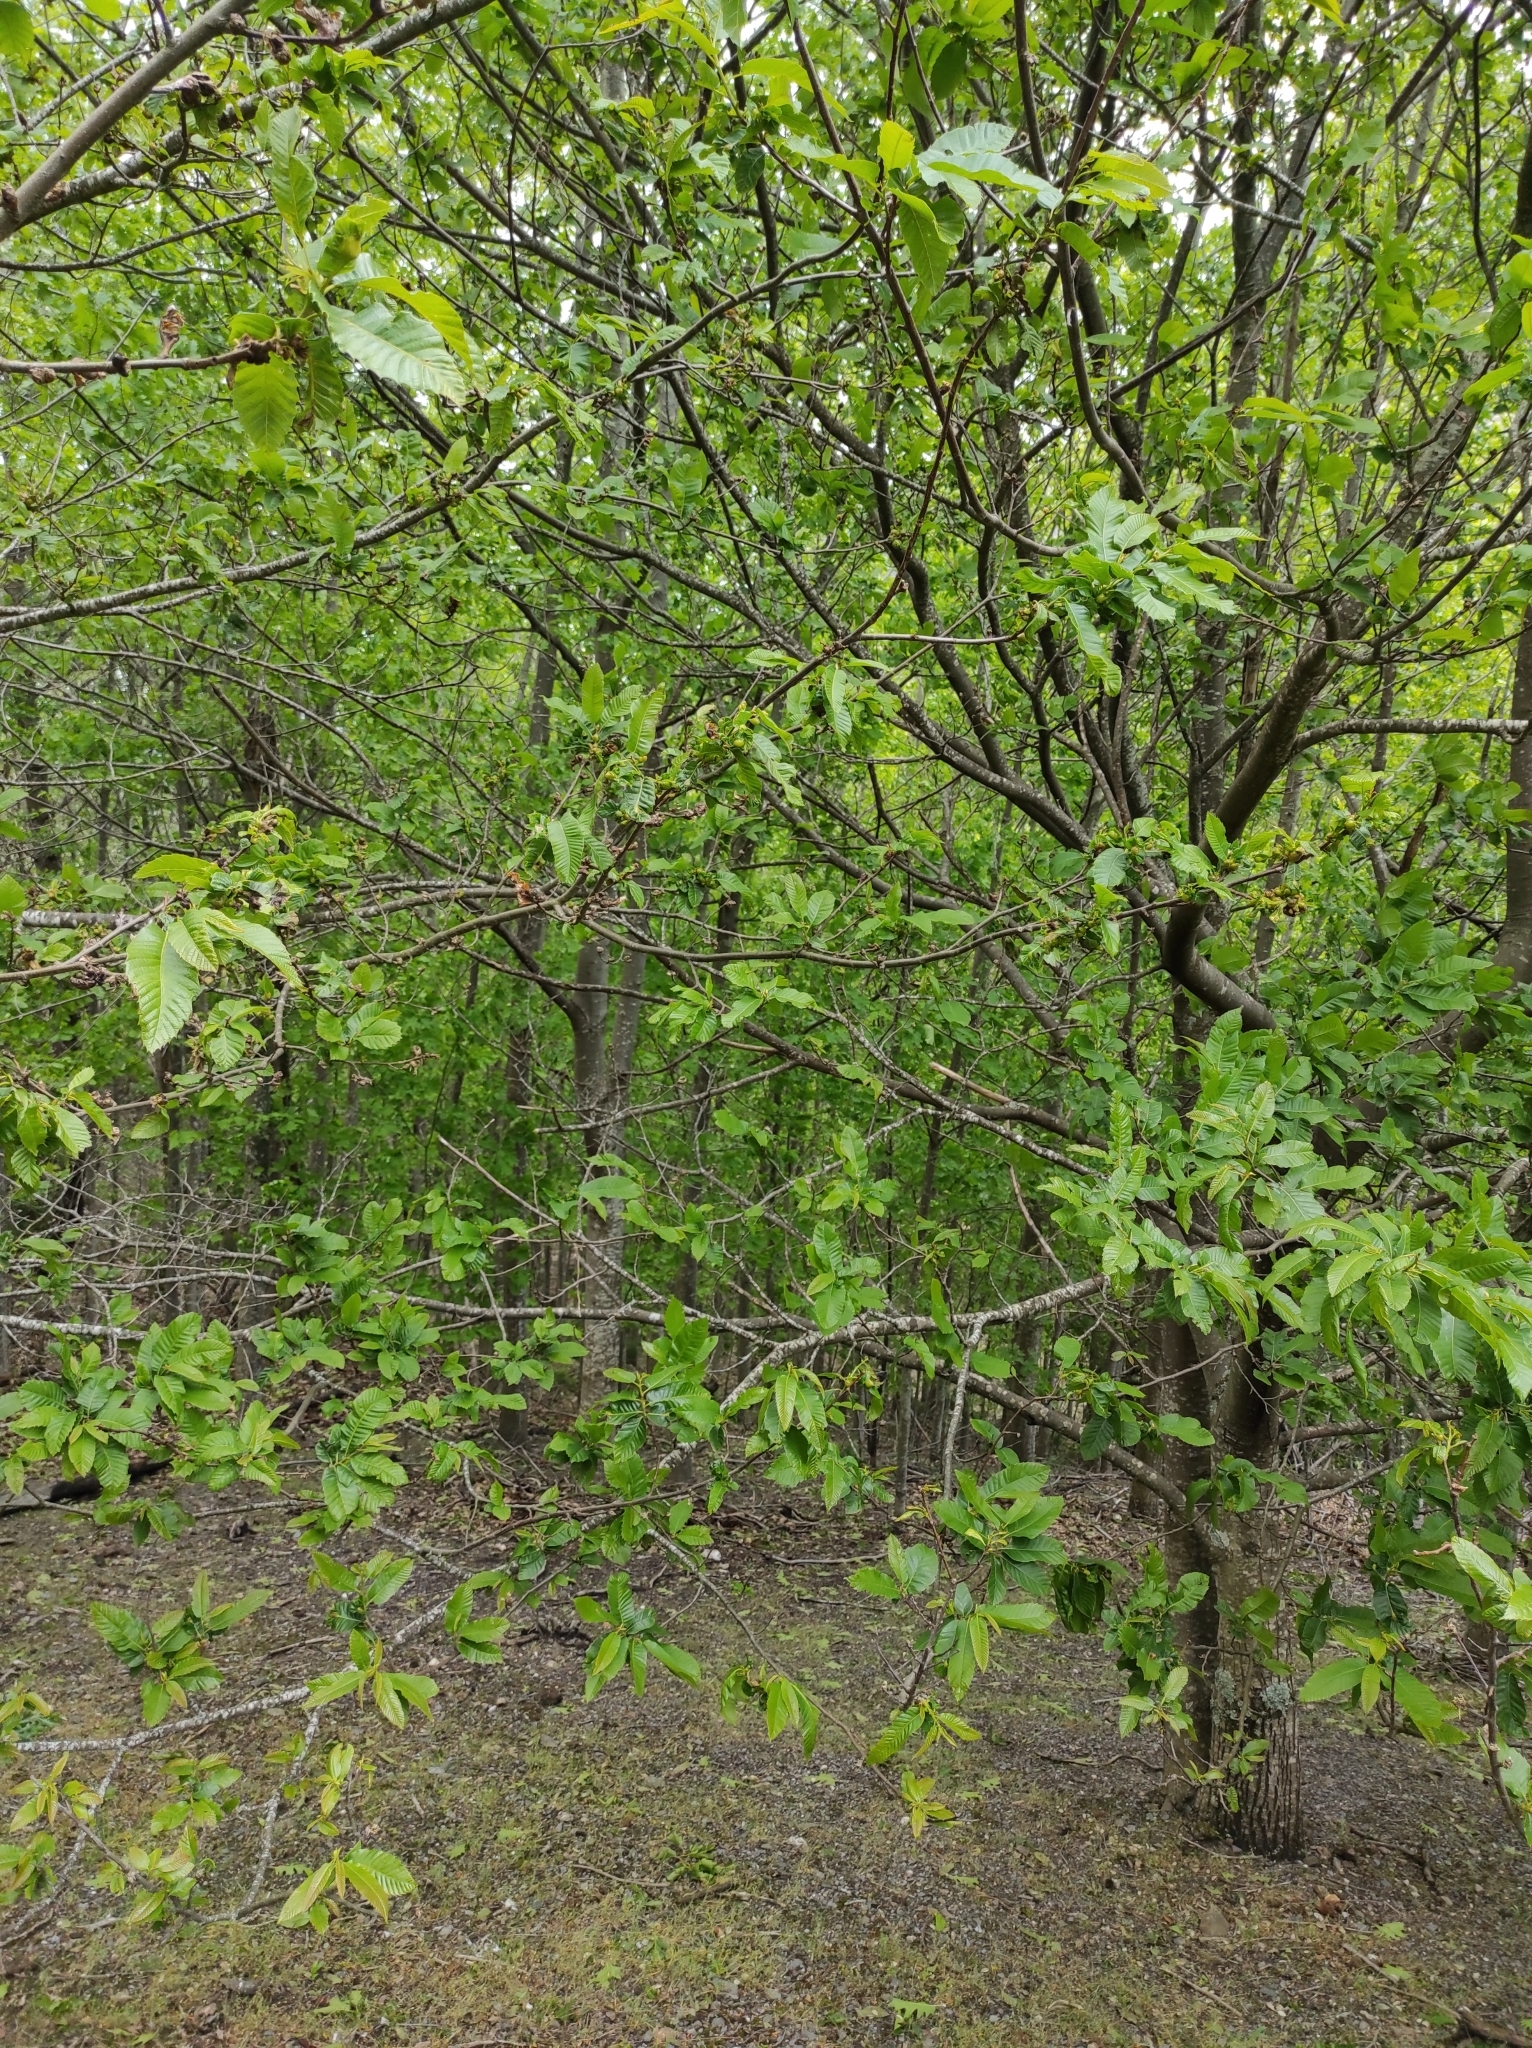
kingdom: Plantae
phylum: Tracheophyta
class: Magnoliopsida
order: Fagales
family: Fagaceae
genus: Quercus
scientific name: Quercus rubra
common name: Red oak
